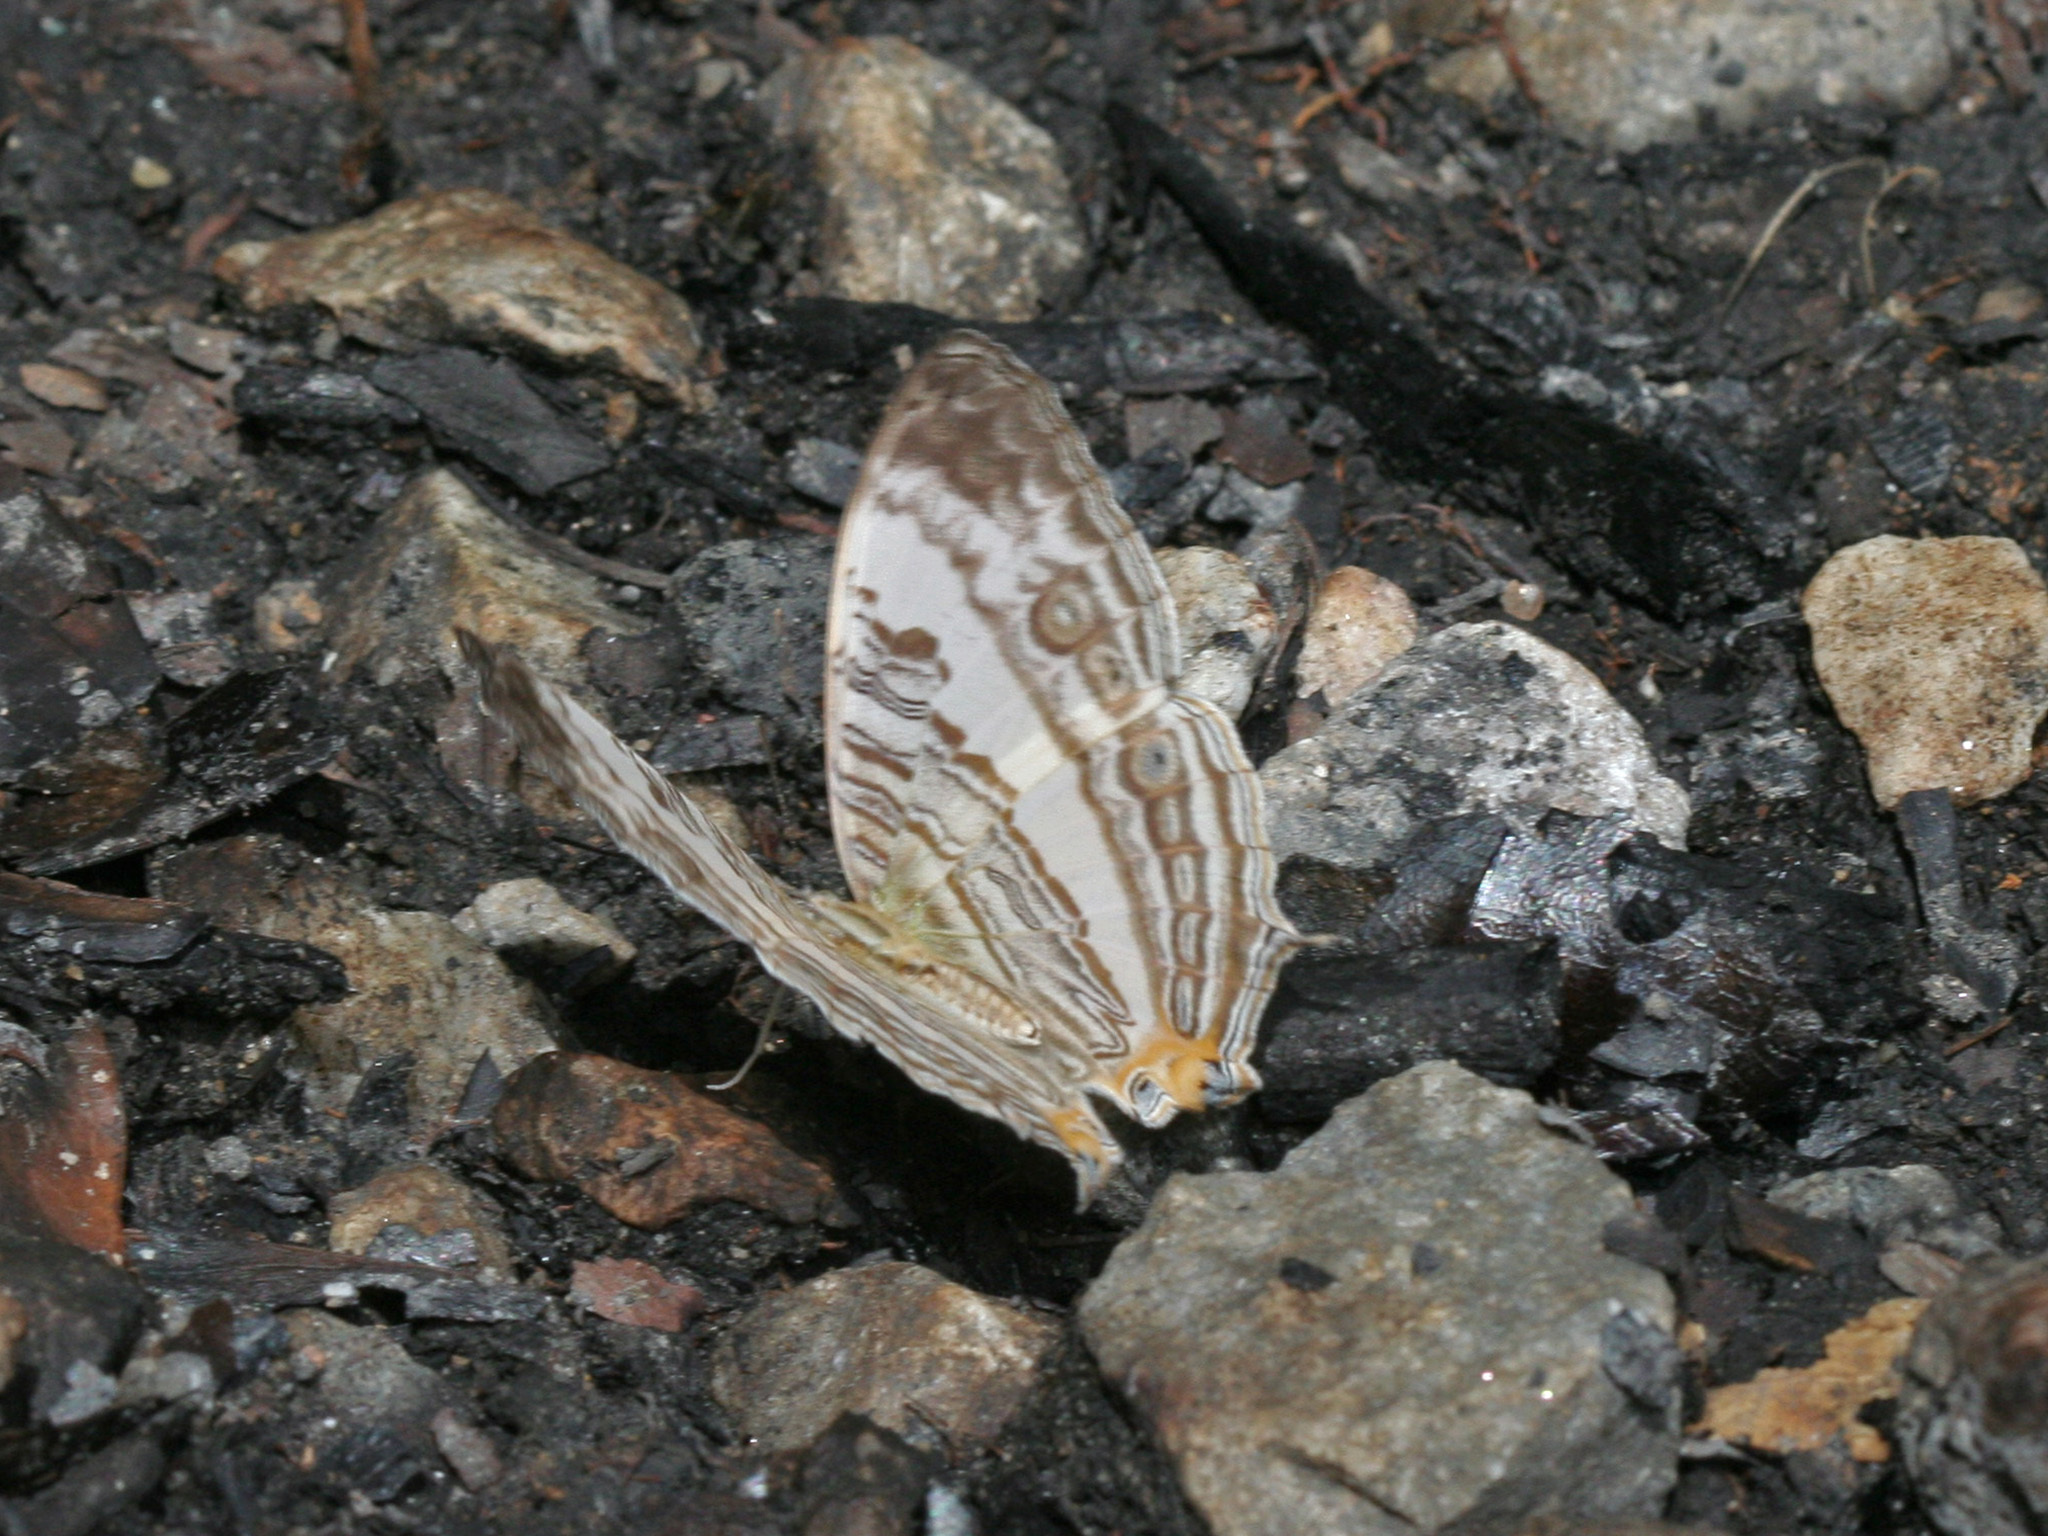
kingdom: Animalia
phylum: Arthropoda
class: Insecta
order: Lepidoptera
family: Nymphalidae
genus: Cyrestis
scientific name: Cyrestis cocles
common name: Marbled map
